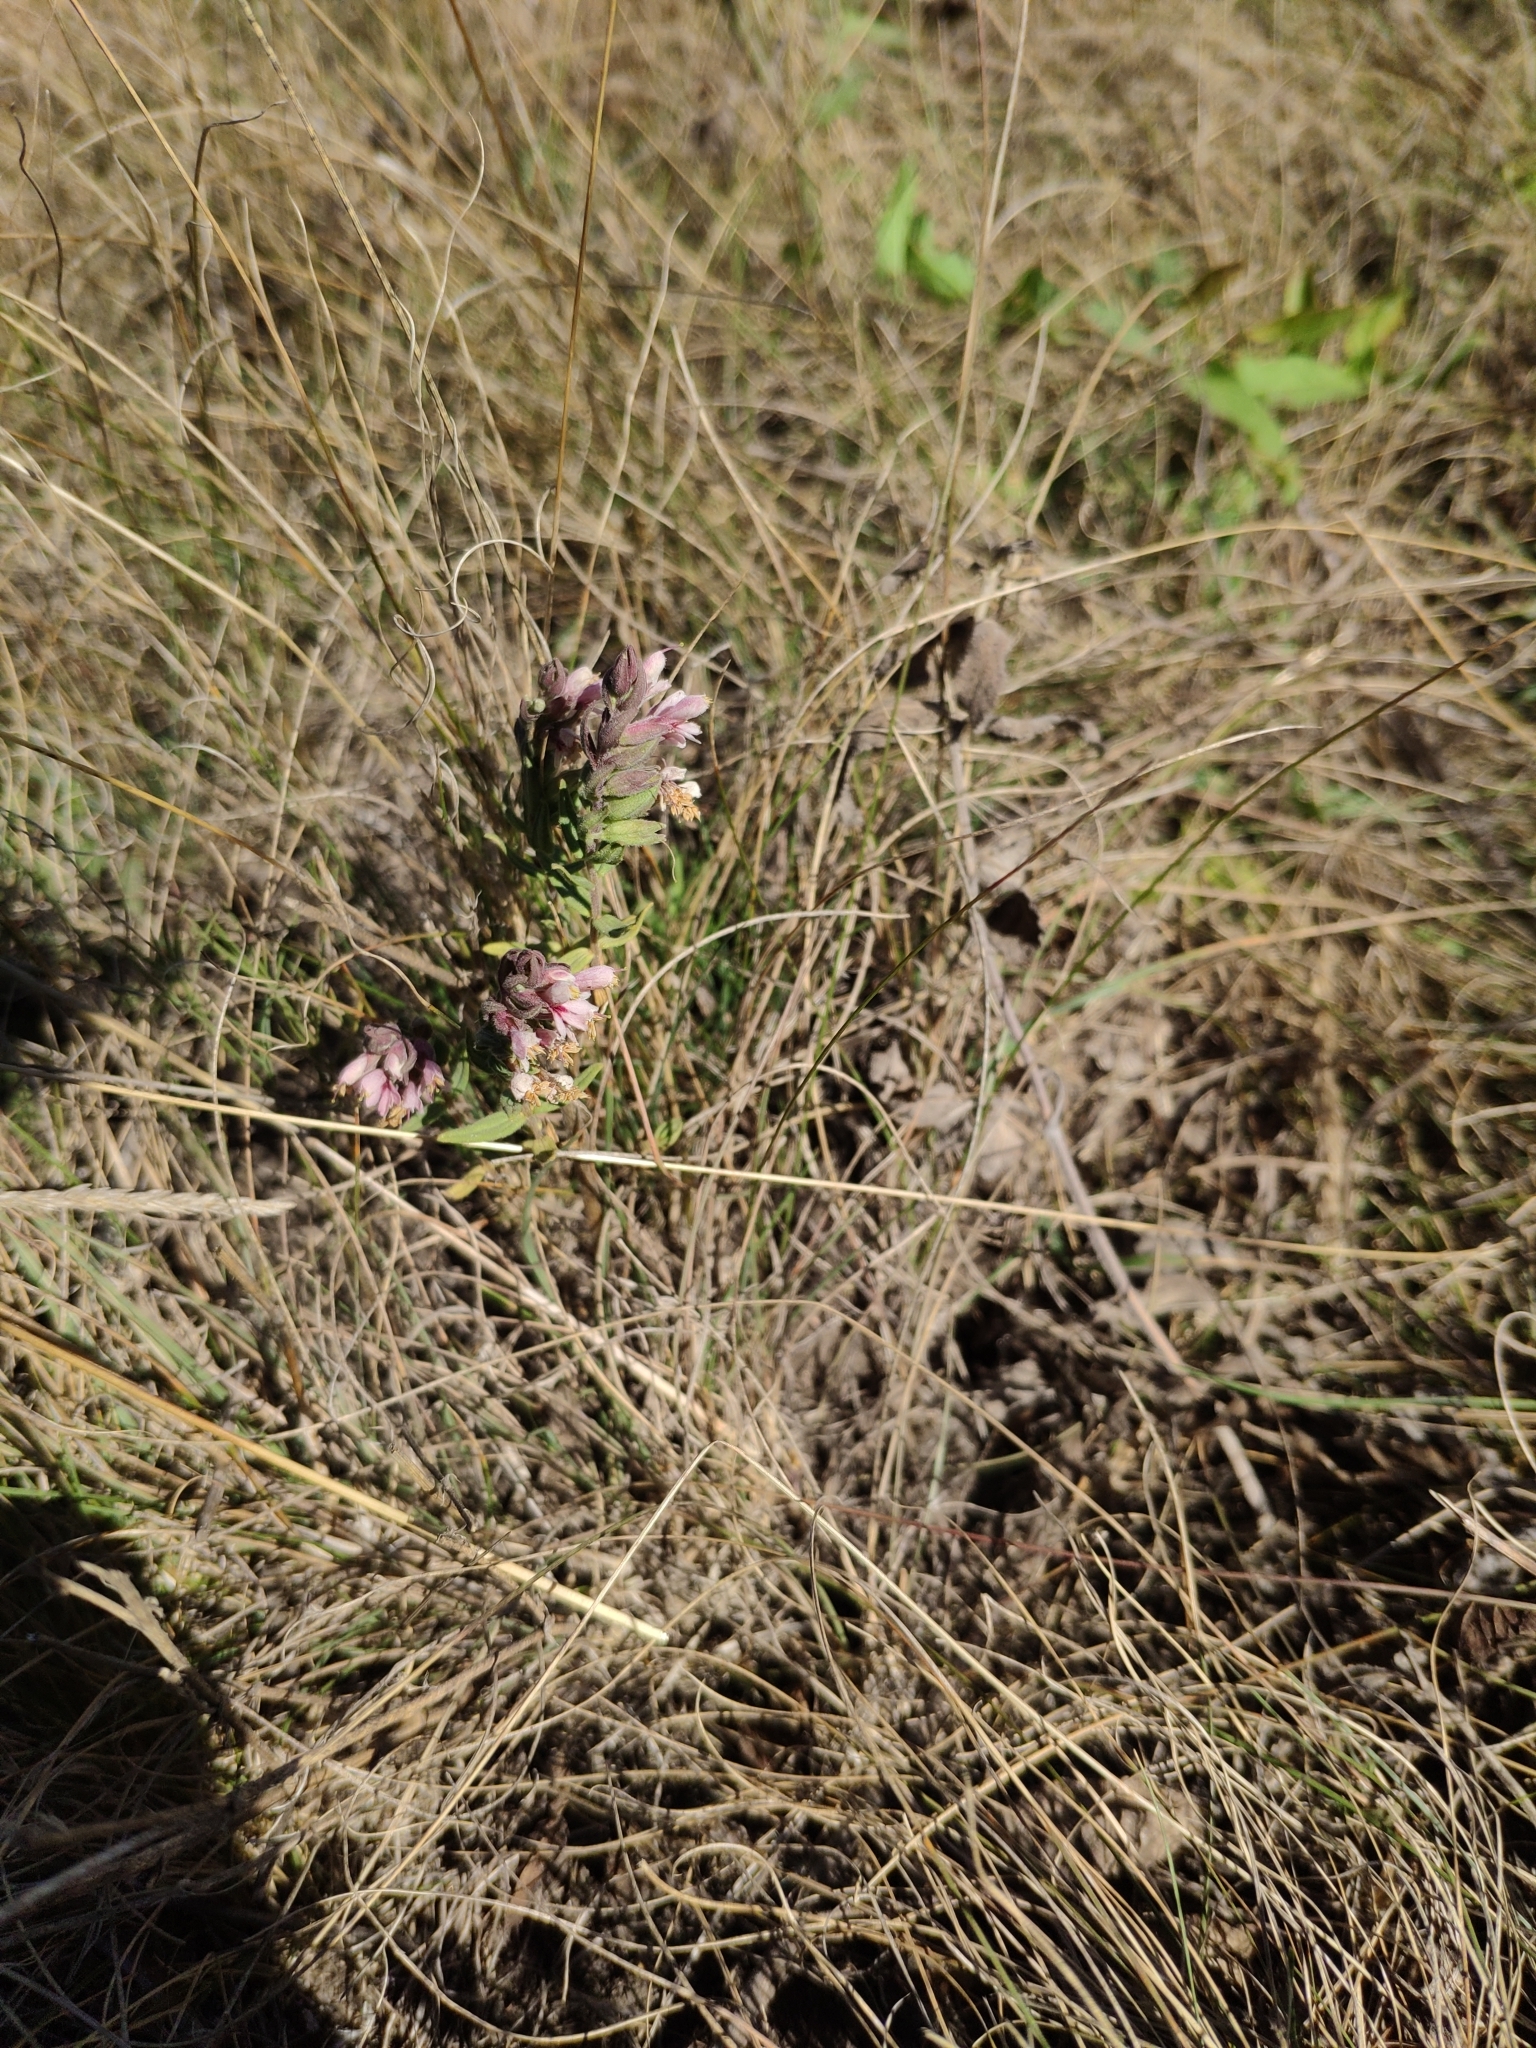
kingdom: Plantae
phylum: Tracheophyta
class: Magnoliopsida
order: Lamiales
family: Orobanchaceae
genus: Odontites
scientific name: Odontites vulgaris
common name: Broomrape
